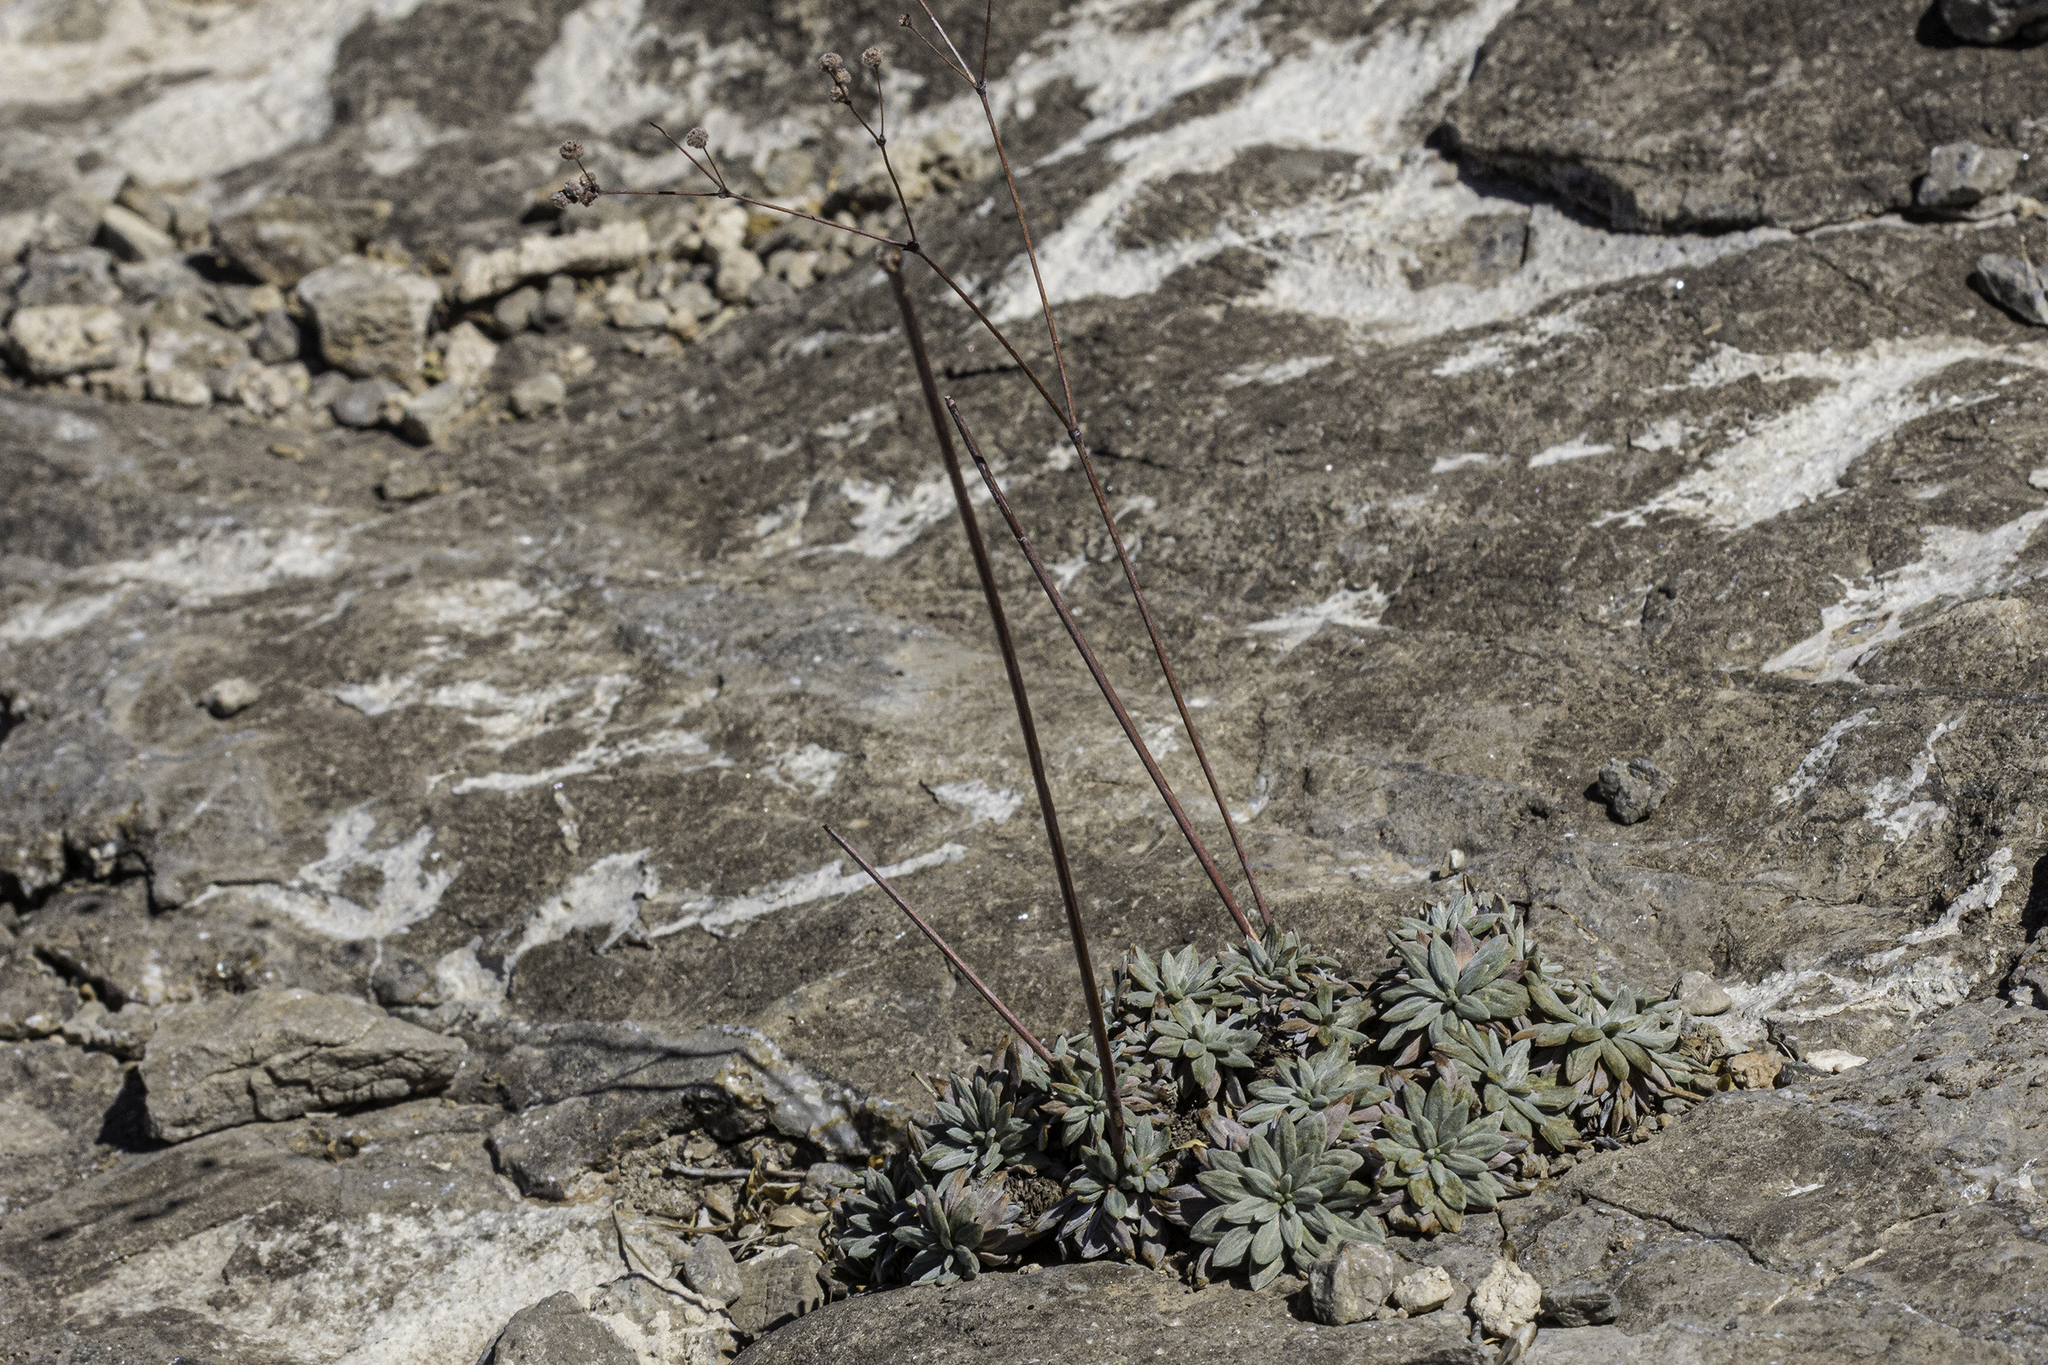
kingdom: Plantae
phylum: Tracheophyta
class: Magnoliopsida
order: Caryophyllales
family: Polygonaceae
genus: Eriogonum
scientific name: Eriogonum havardii
